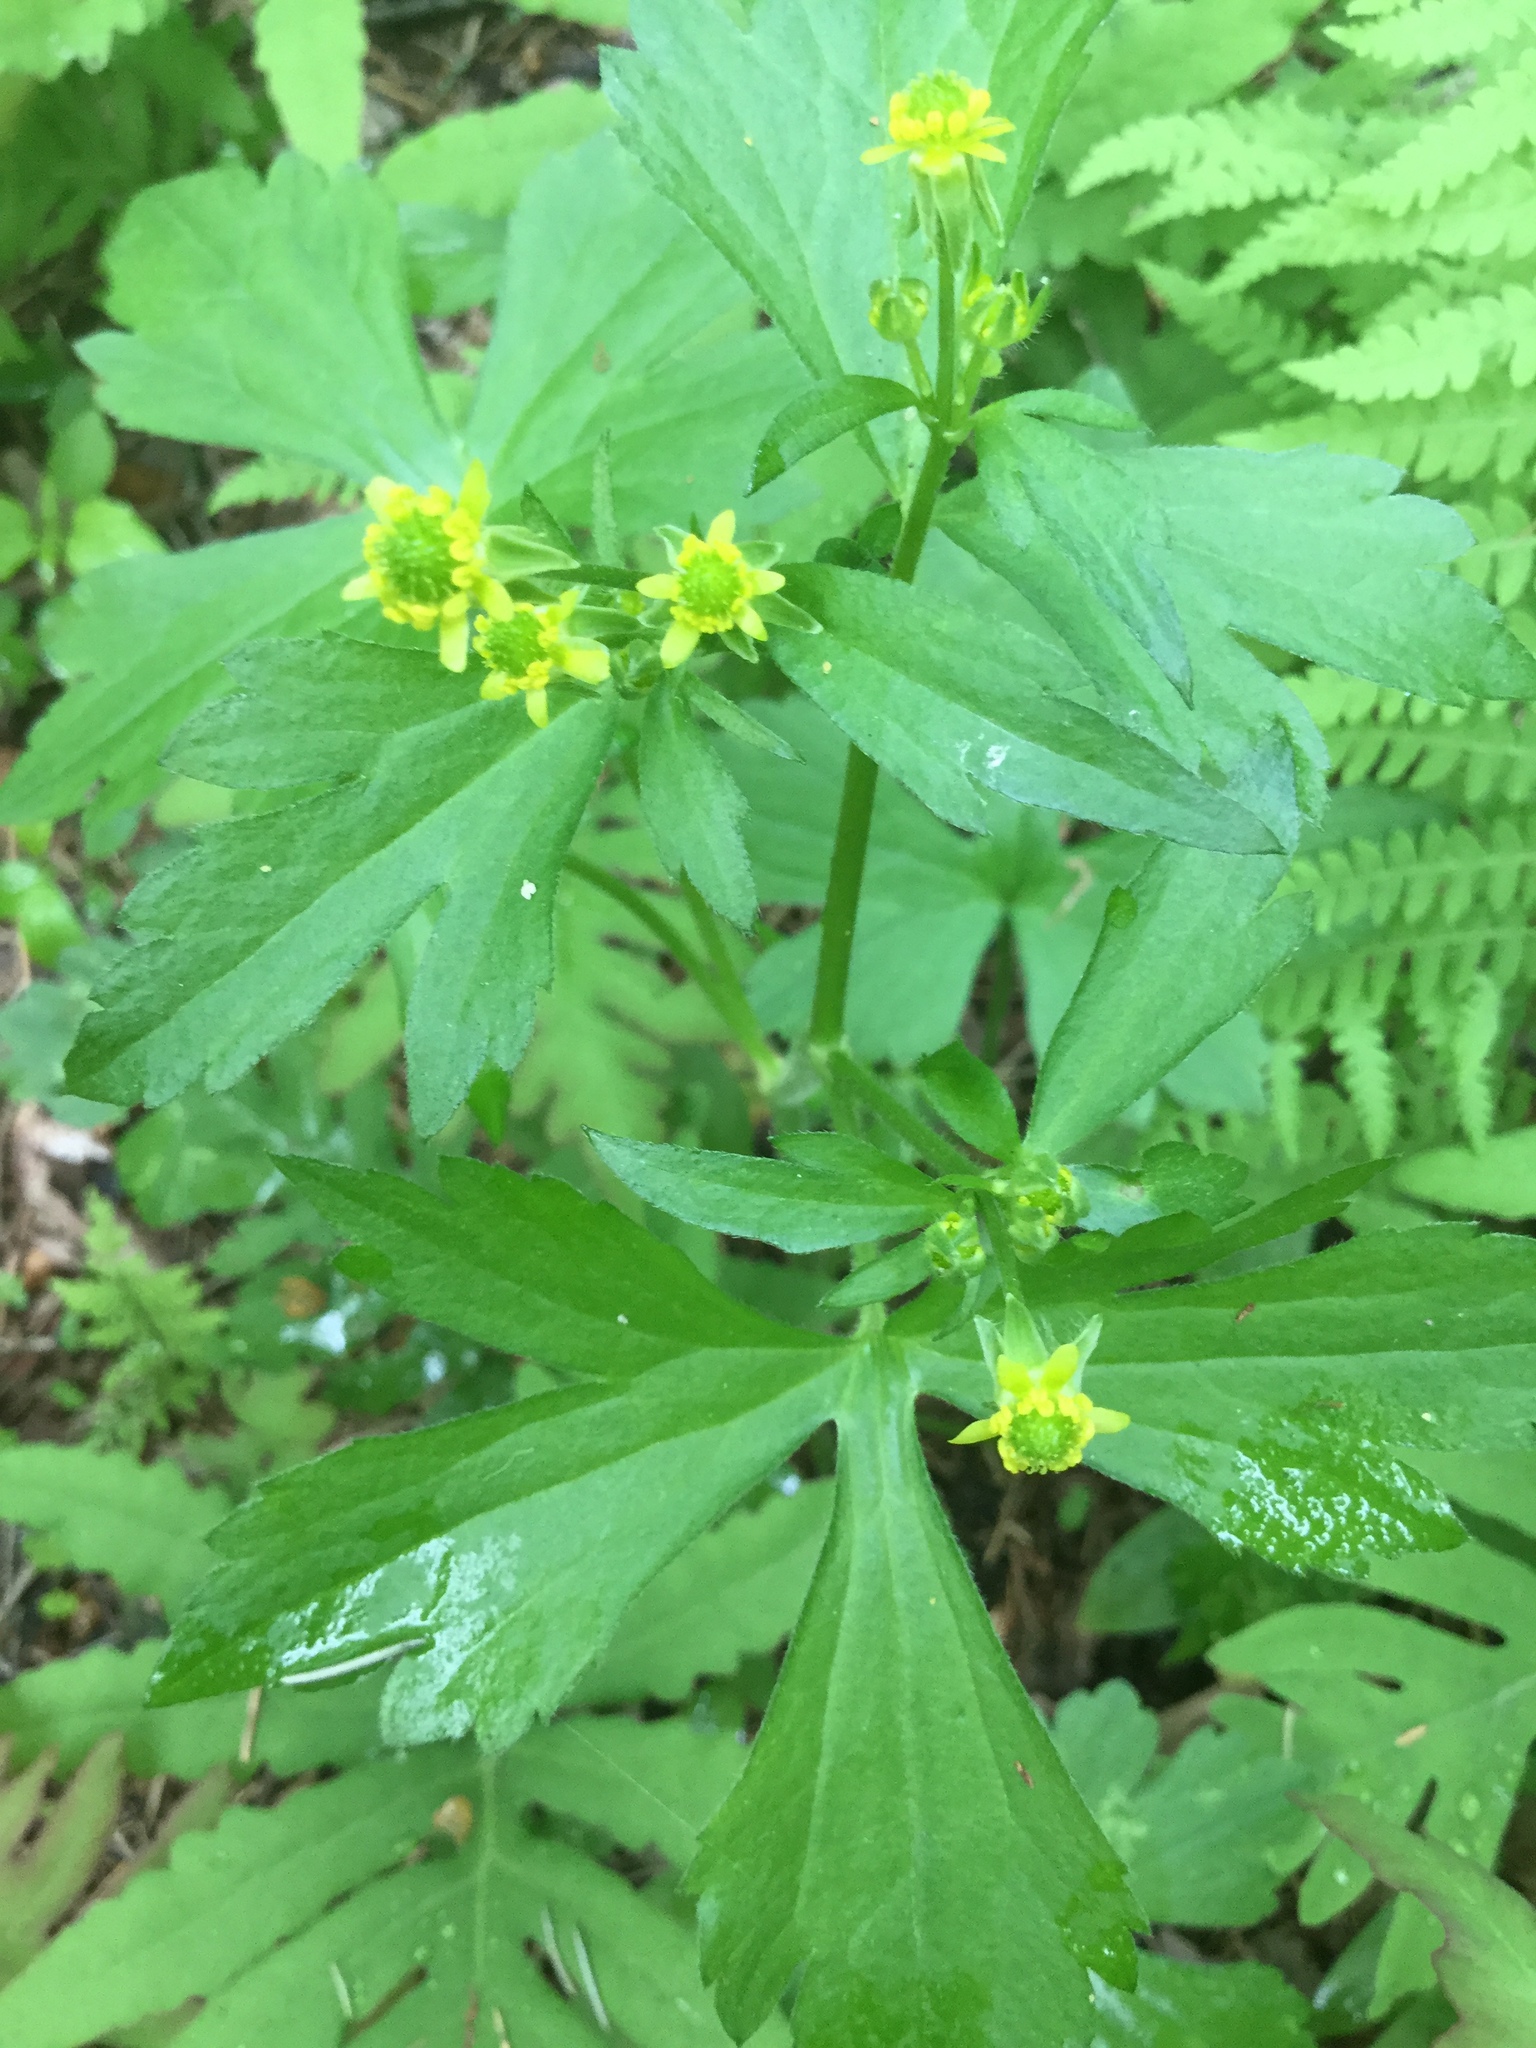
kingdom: Plantae
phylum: Tracheophyta
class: Magnoliopsida
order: Ranunculales
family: Ranunculaceae
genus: Ranunculus
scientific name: Ranunculus recurvatus
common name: Blisterwort
